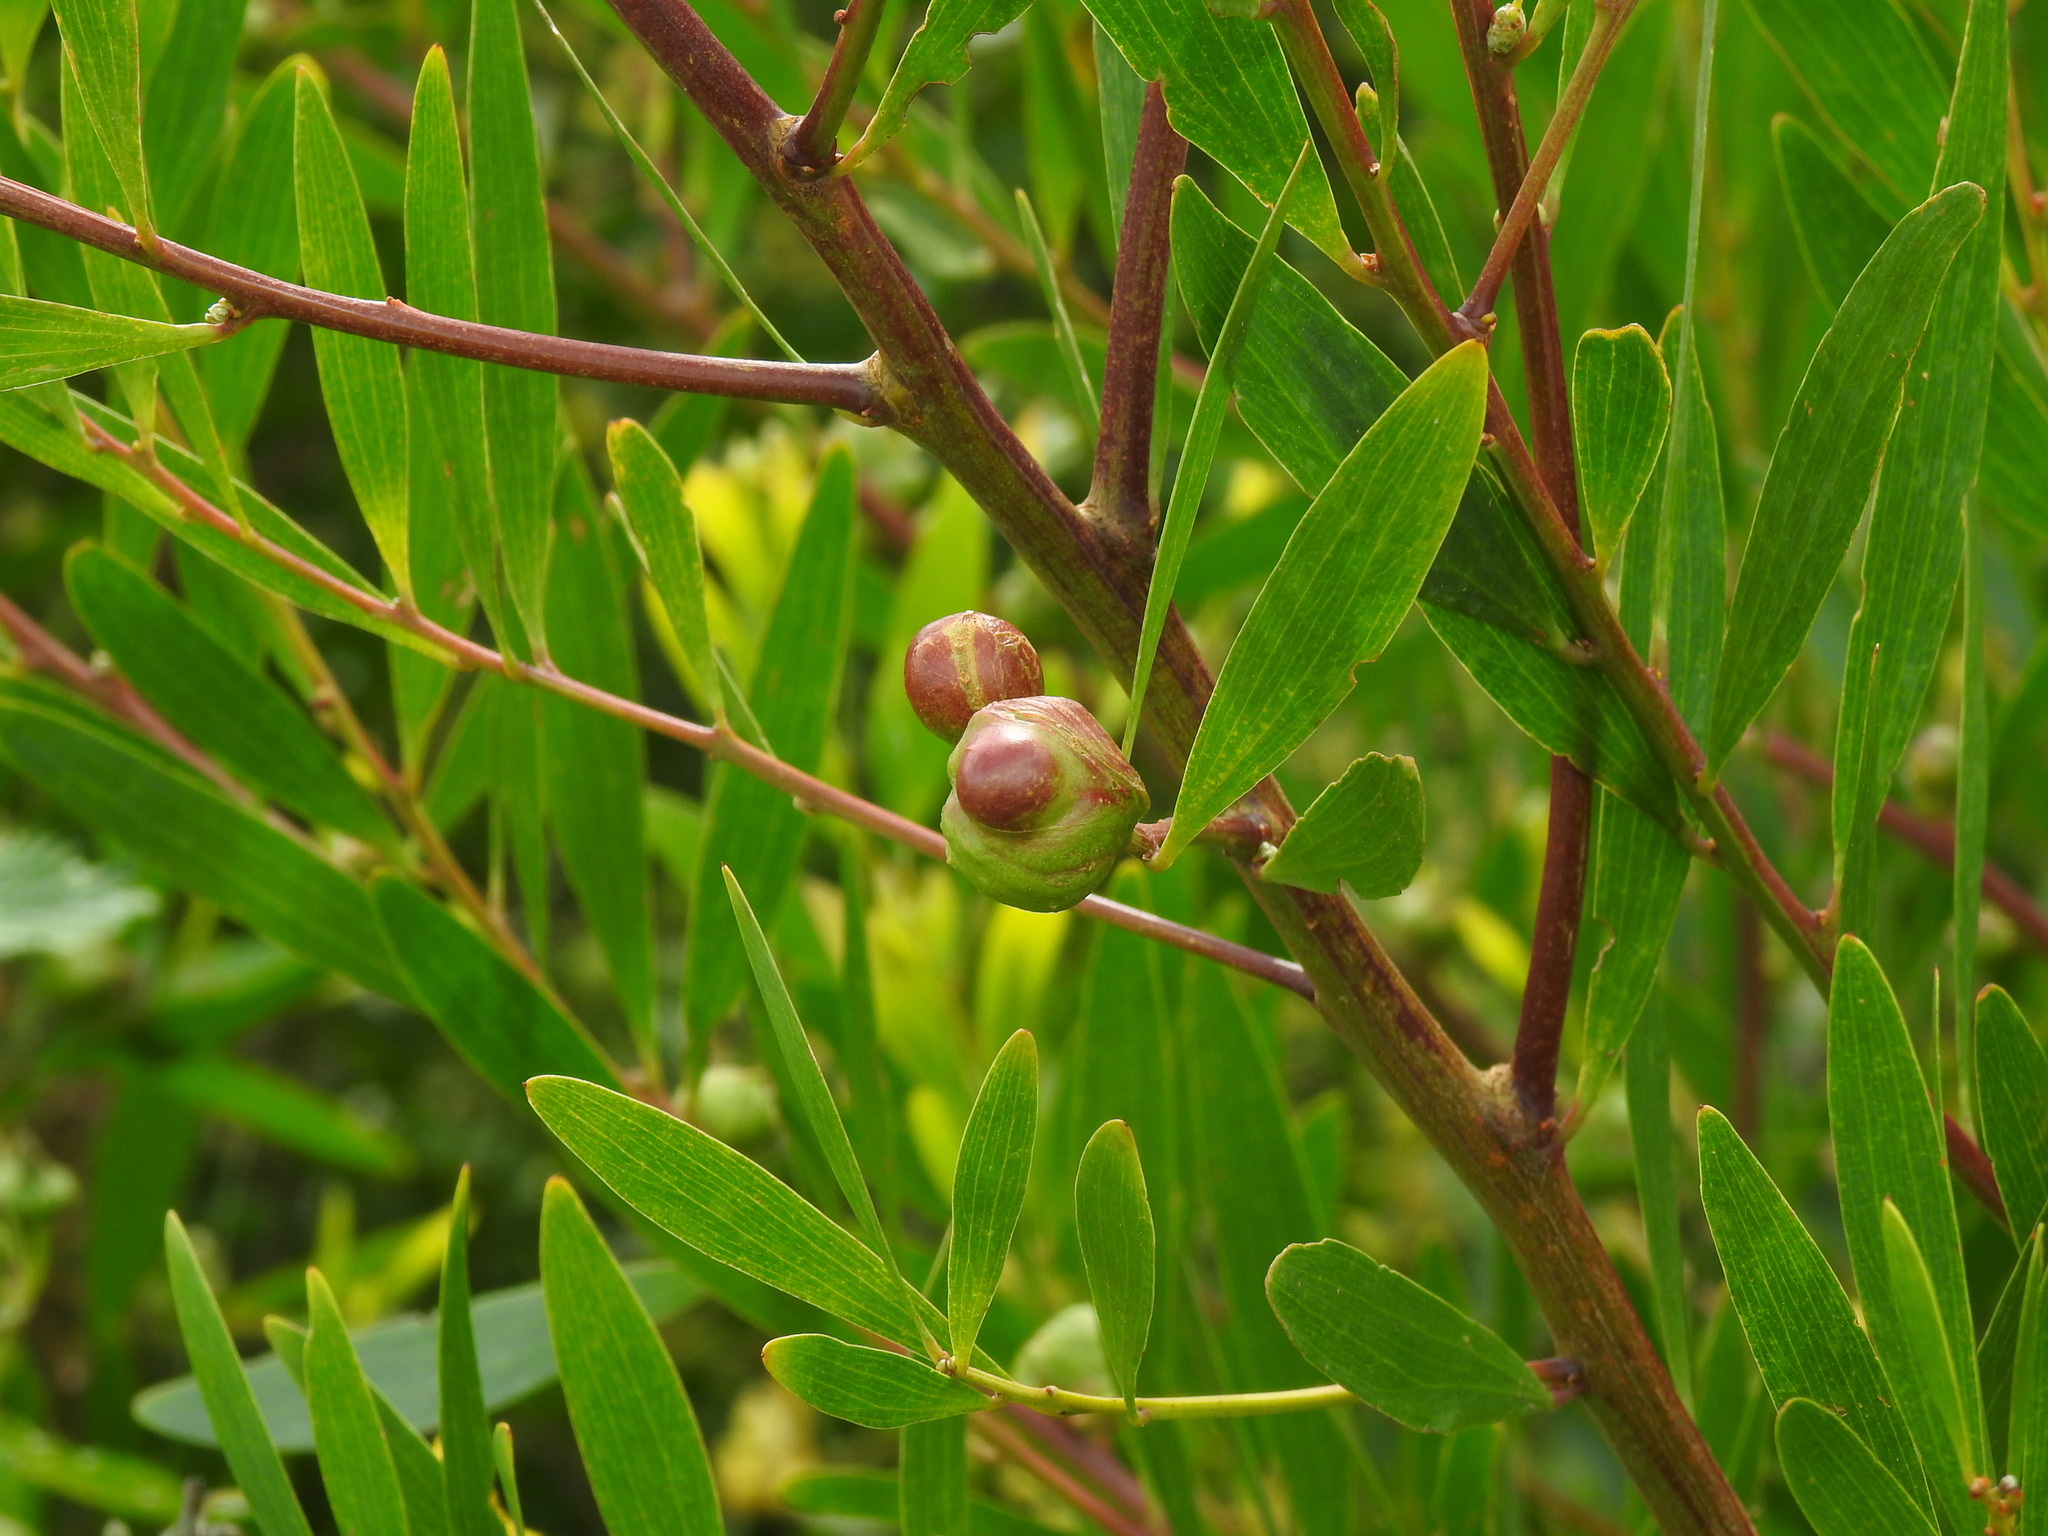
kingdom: Animalia
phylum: Arthropoda
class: Insecta
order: Hymenoptera
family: Pteromalidae
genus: Trichilogaster
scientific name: Trichilogaster acaciaelongifoliae
